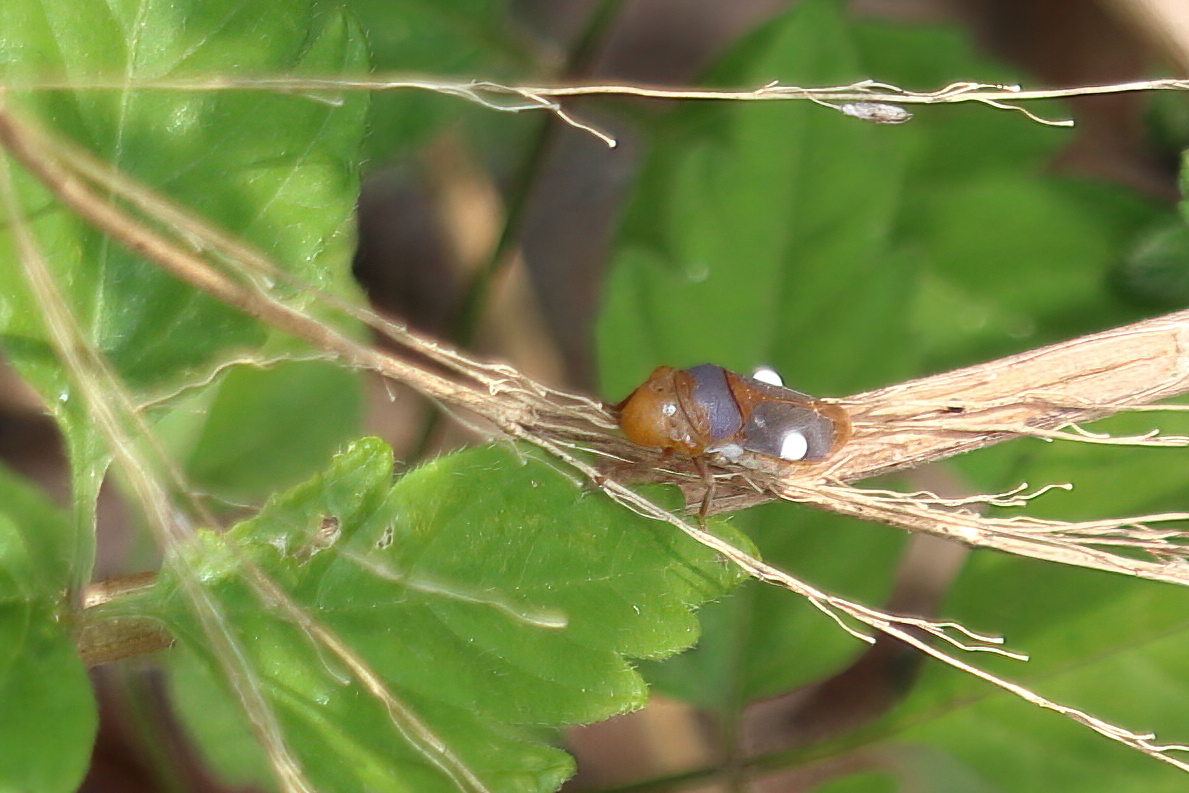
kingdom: Animalia
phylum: Arthropoda
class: Insecta
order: Hemiptera
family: Cicadellidae
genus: Oncometopia
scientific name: Oncometopia hamiltoni
